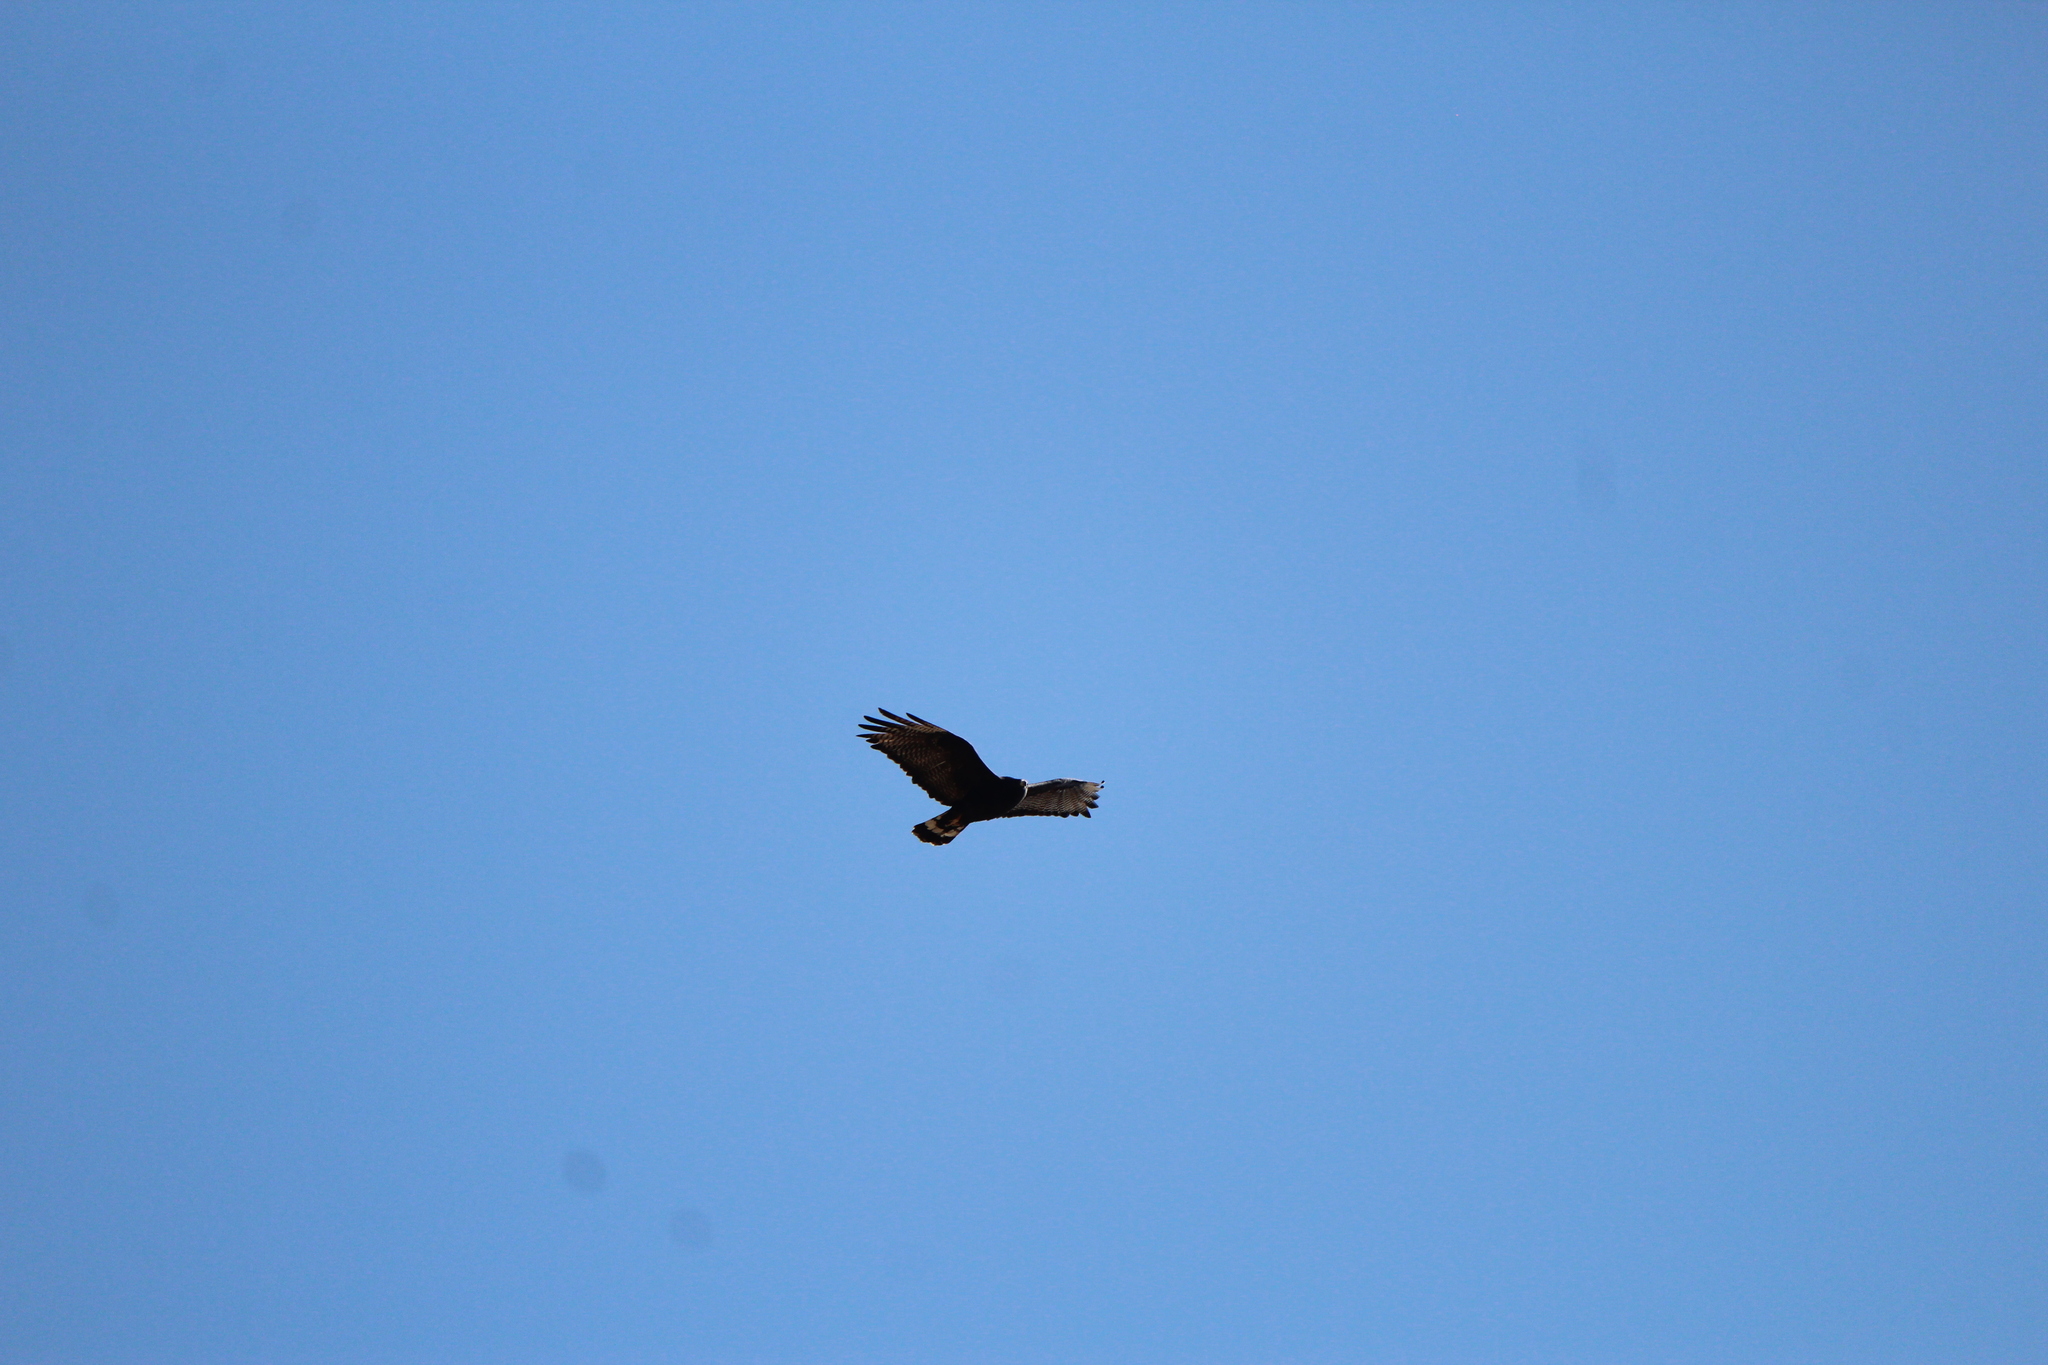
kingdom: Animalia
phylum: Chordata
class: Aves
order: Accipitriformes
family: Accipitridae
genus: Buteo
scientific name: Buteo albonotatus
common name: Zone-tailed hawk
